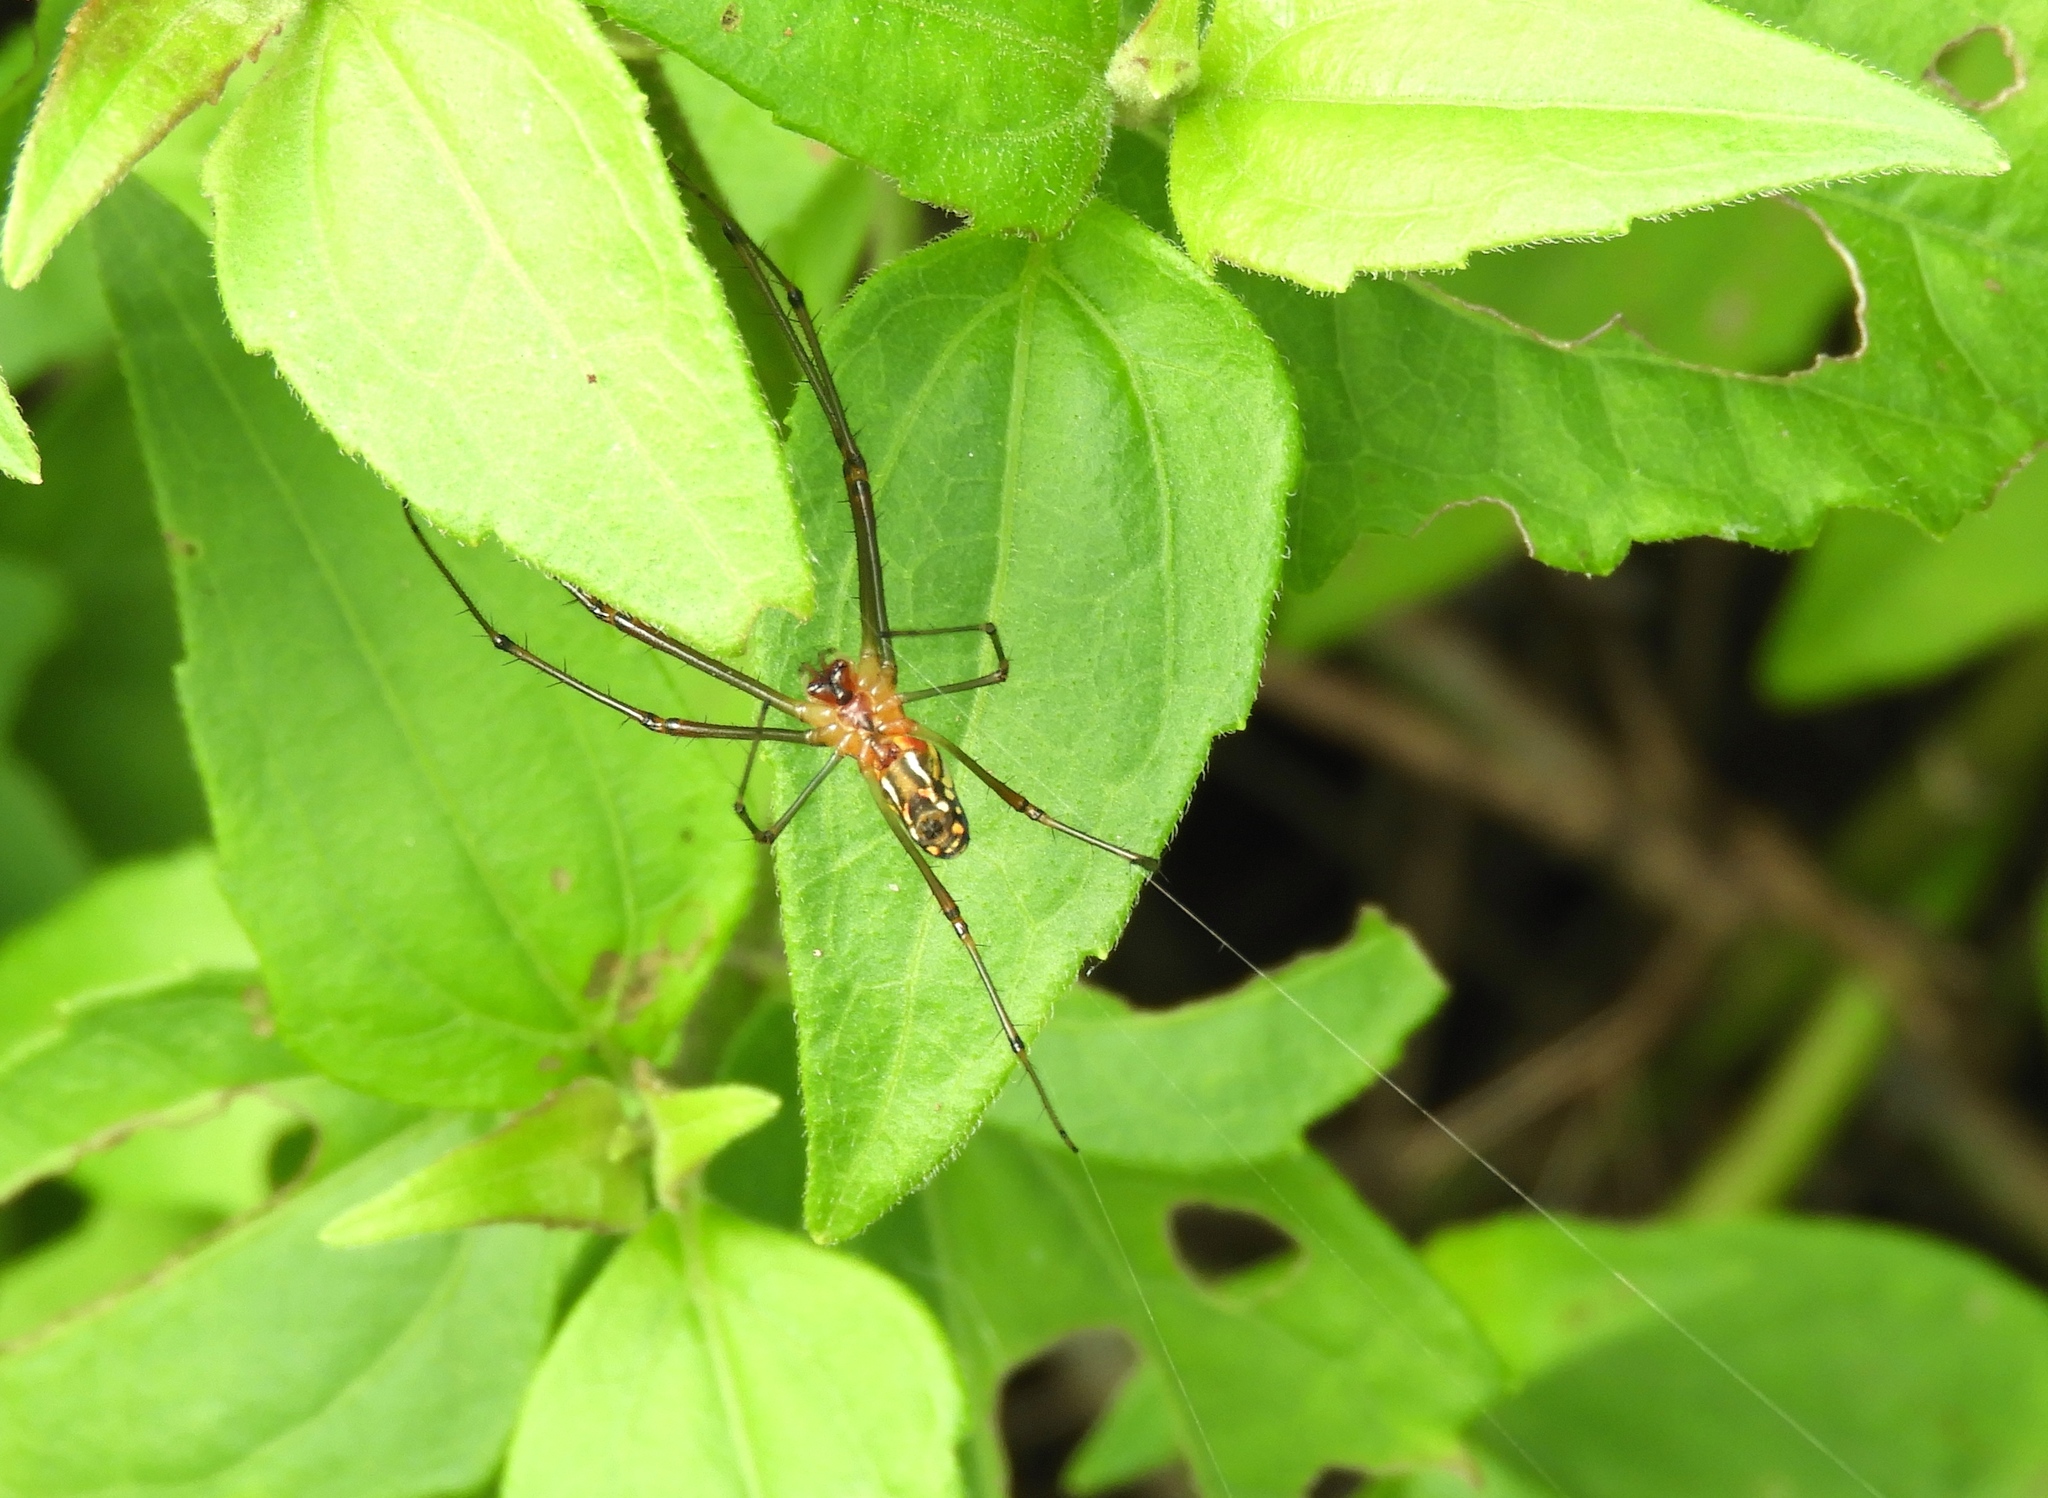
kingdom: Animalia
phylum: Arthropoda
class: Arachnida
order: Araneae
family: Tetragnathidae
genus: Leucauge
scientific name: Leucauge
